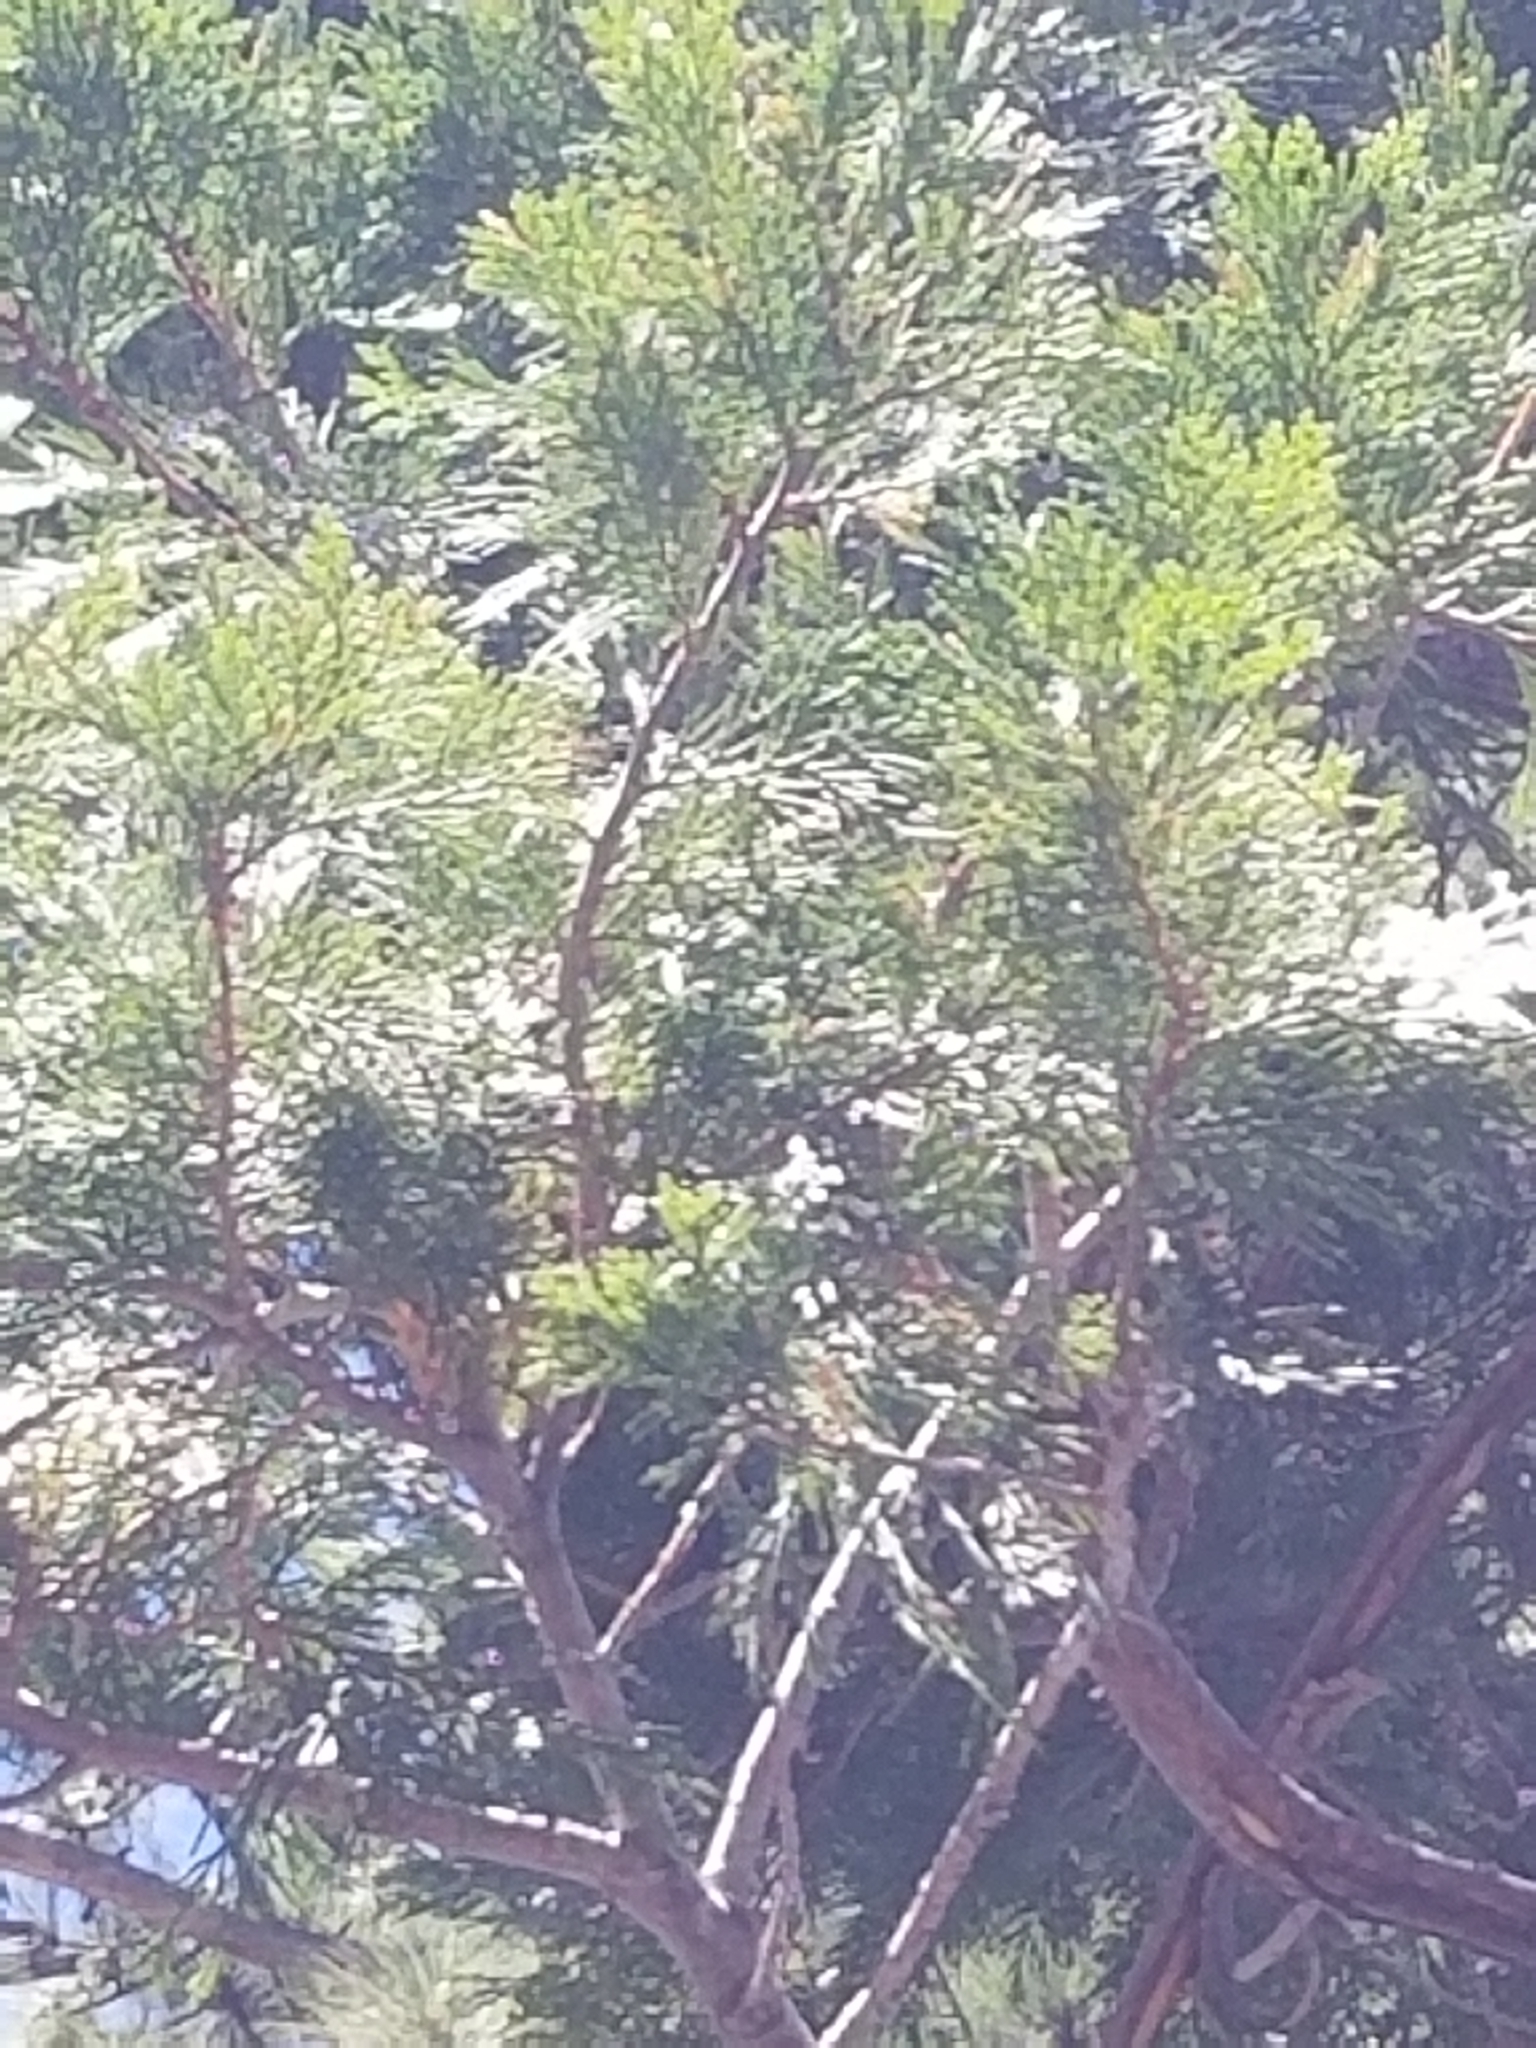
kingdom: Plantae
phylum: Tracheophyta
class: Pinopsida
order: Pinales
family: Cupressaceae
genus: Calocedrus
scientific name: Calocedrus decurrens
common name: Californian incense-cedar
